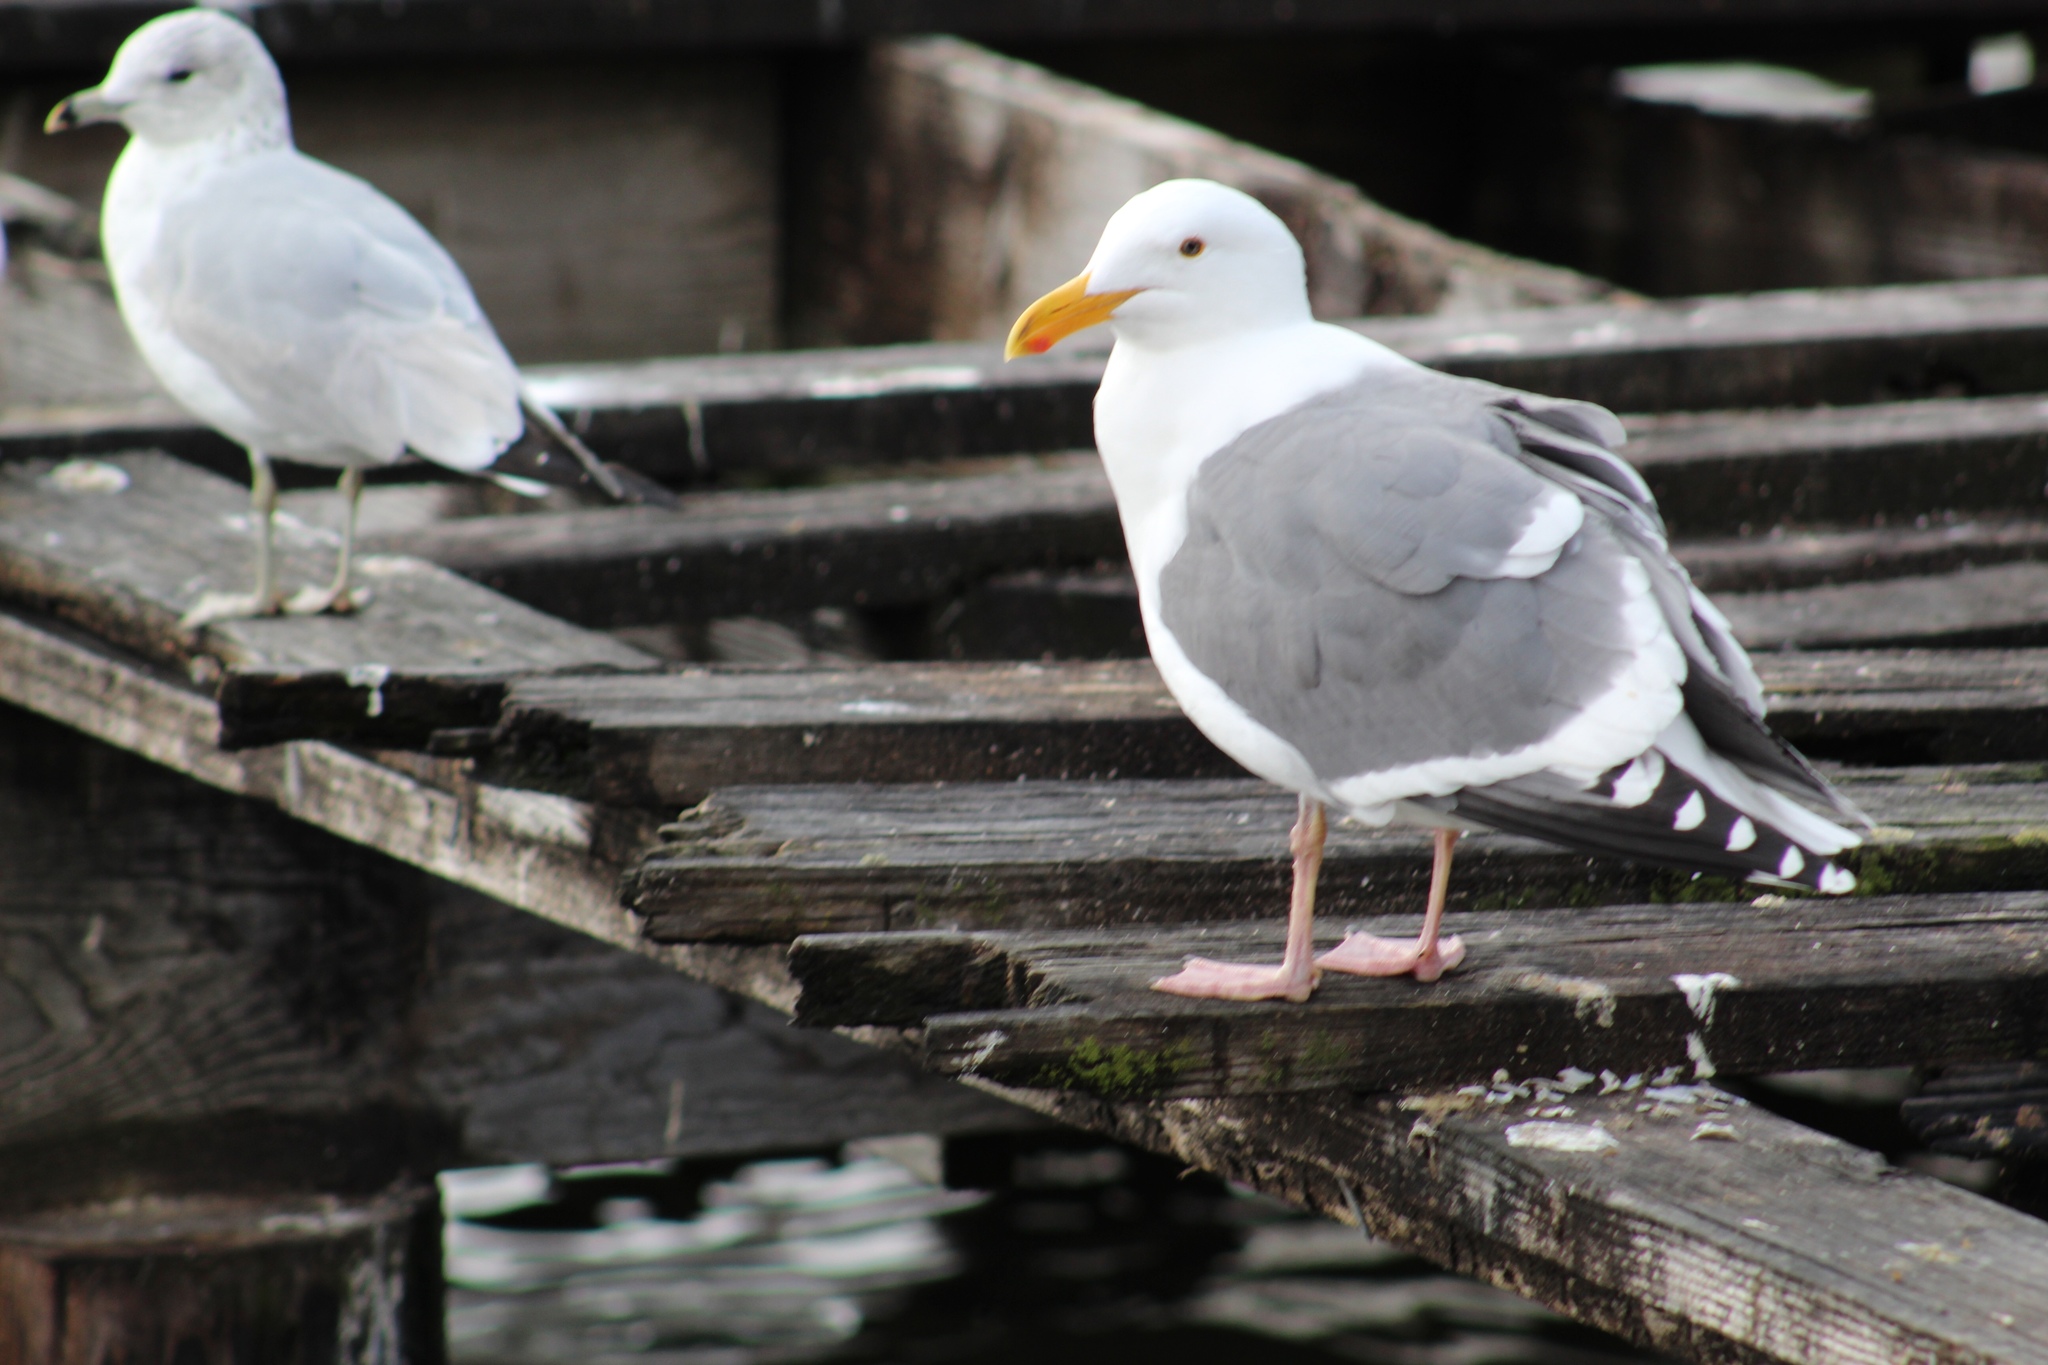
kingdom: Animalia
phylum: Chordata
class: Aves
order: Charadriiformes
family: Laridae
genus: Larus
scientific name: Larus occidentalis
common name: Western gull
